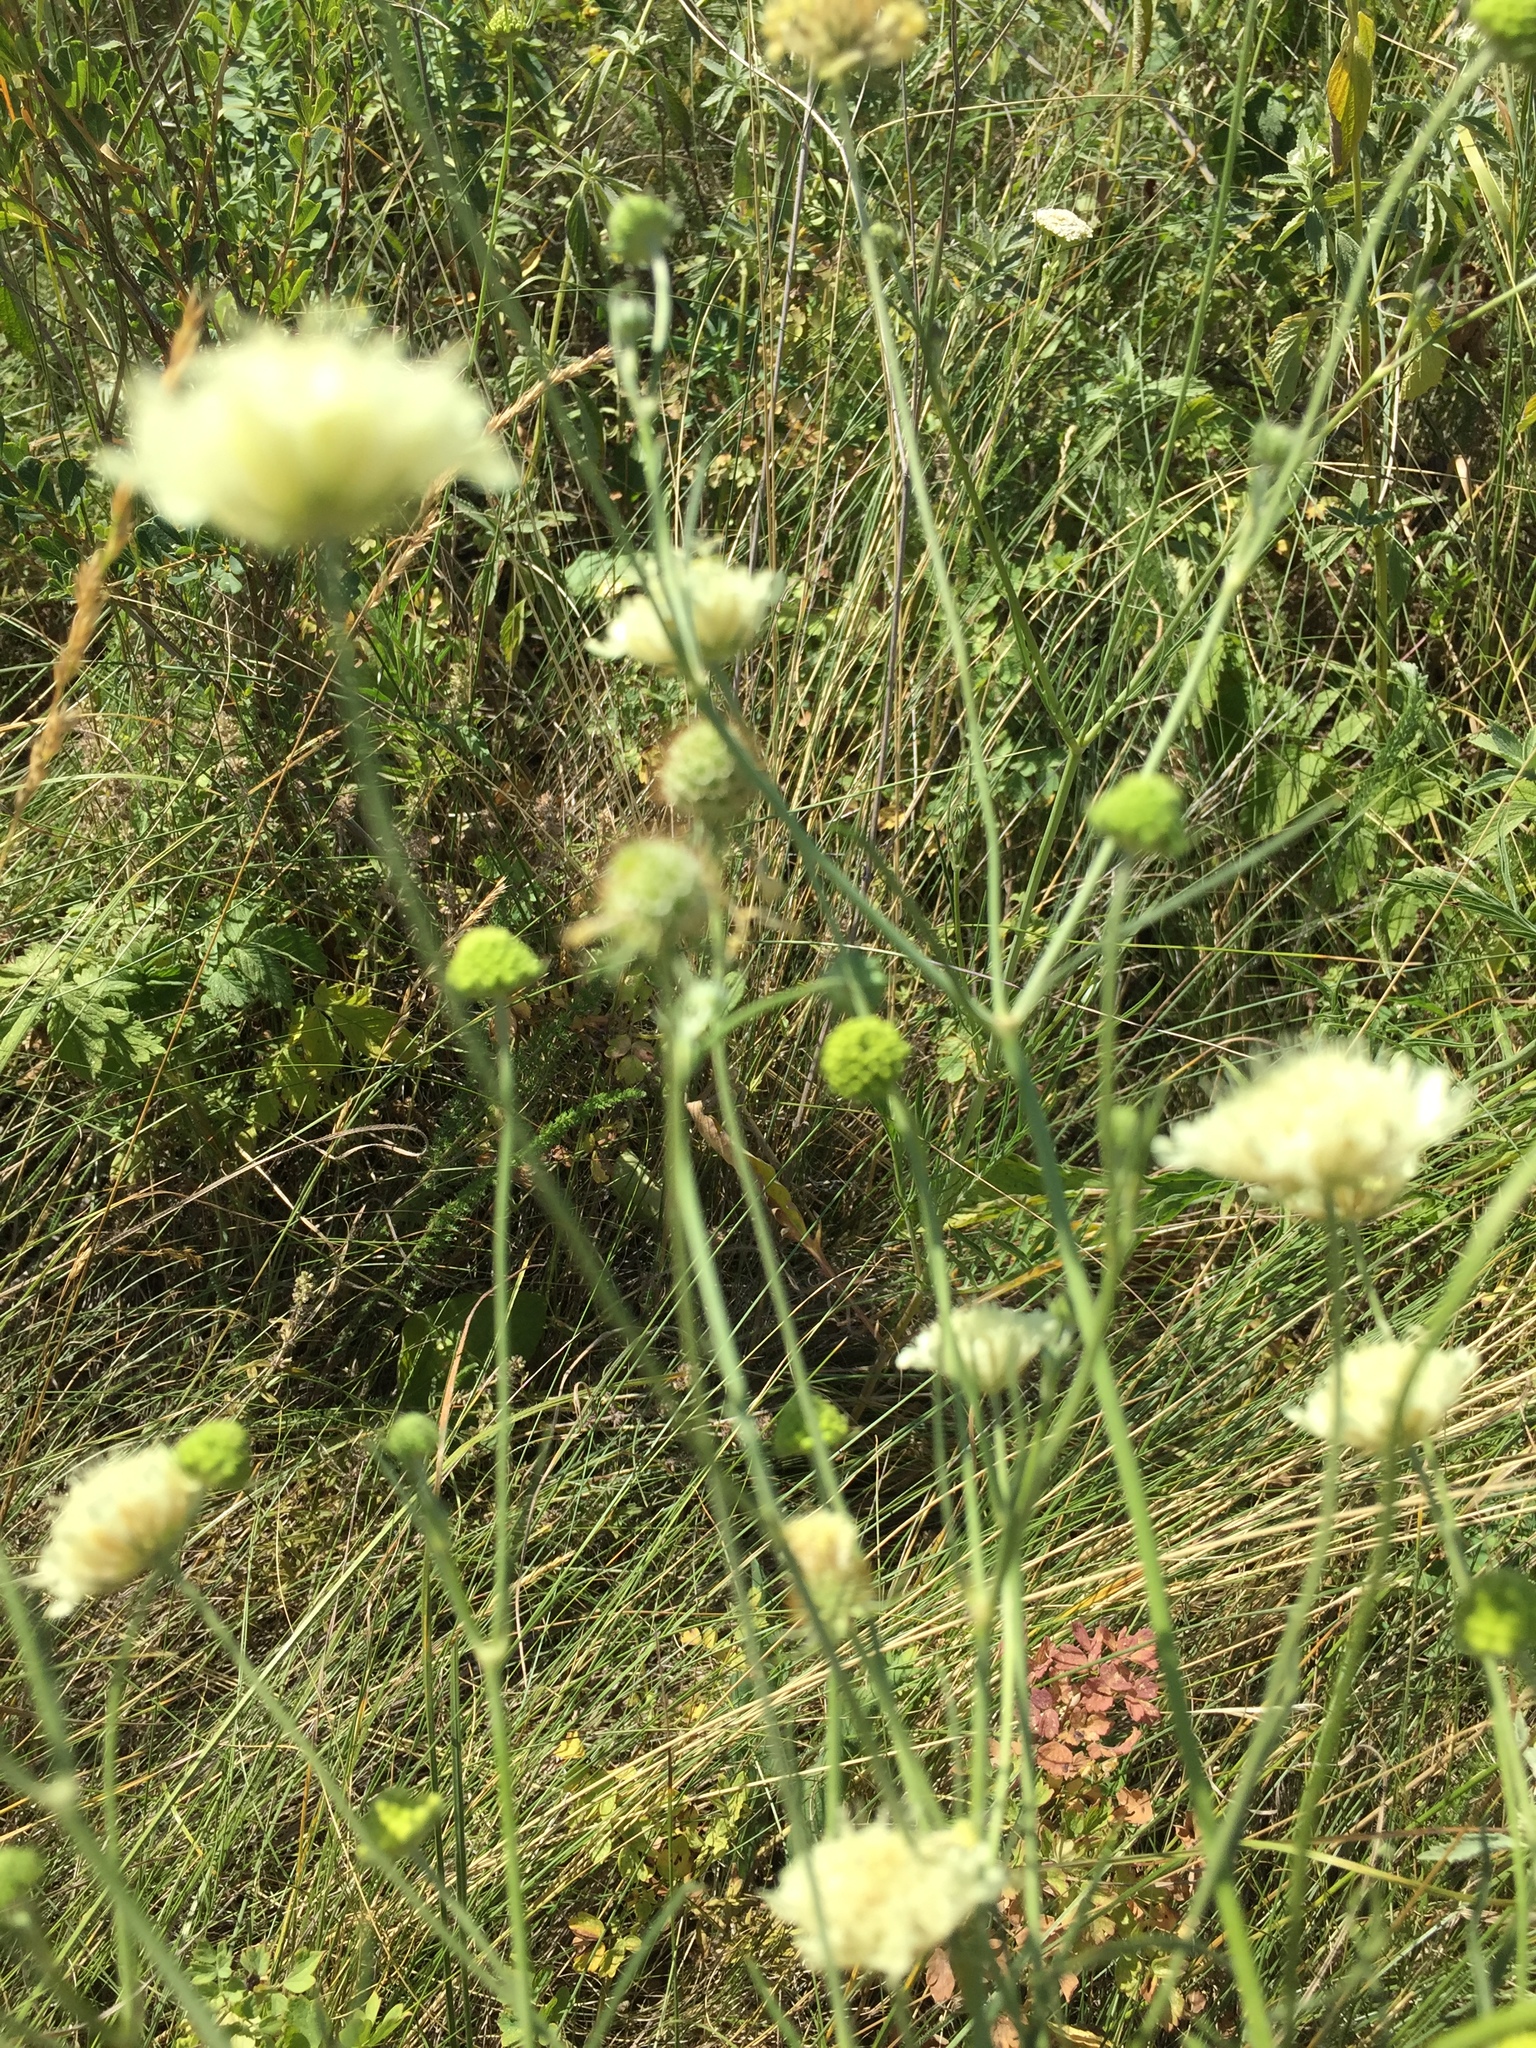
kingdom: Plantae
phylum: Tracheophyta
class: Magnoliopsida
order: Dipsacales
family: Caprifoliaceae
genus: Scabiosa
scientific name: Scabiosa ochroleuca
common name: Cream pincushions
